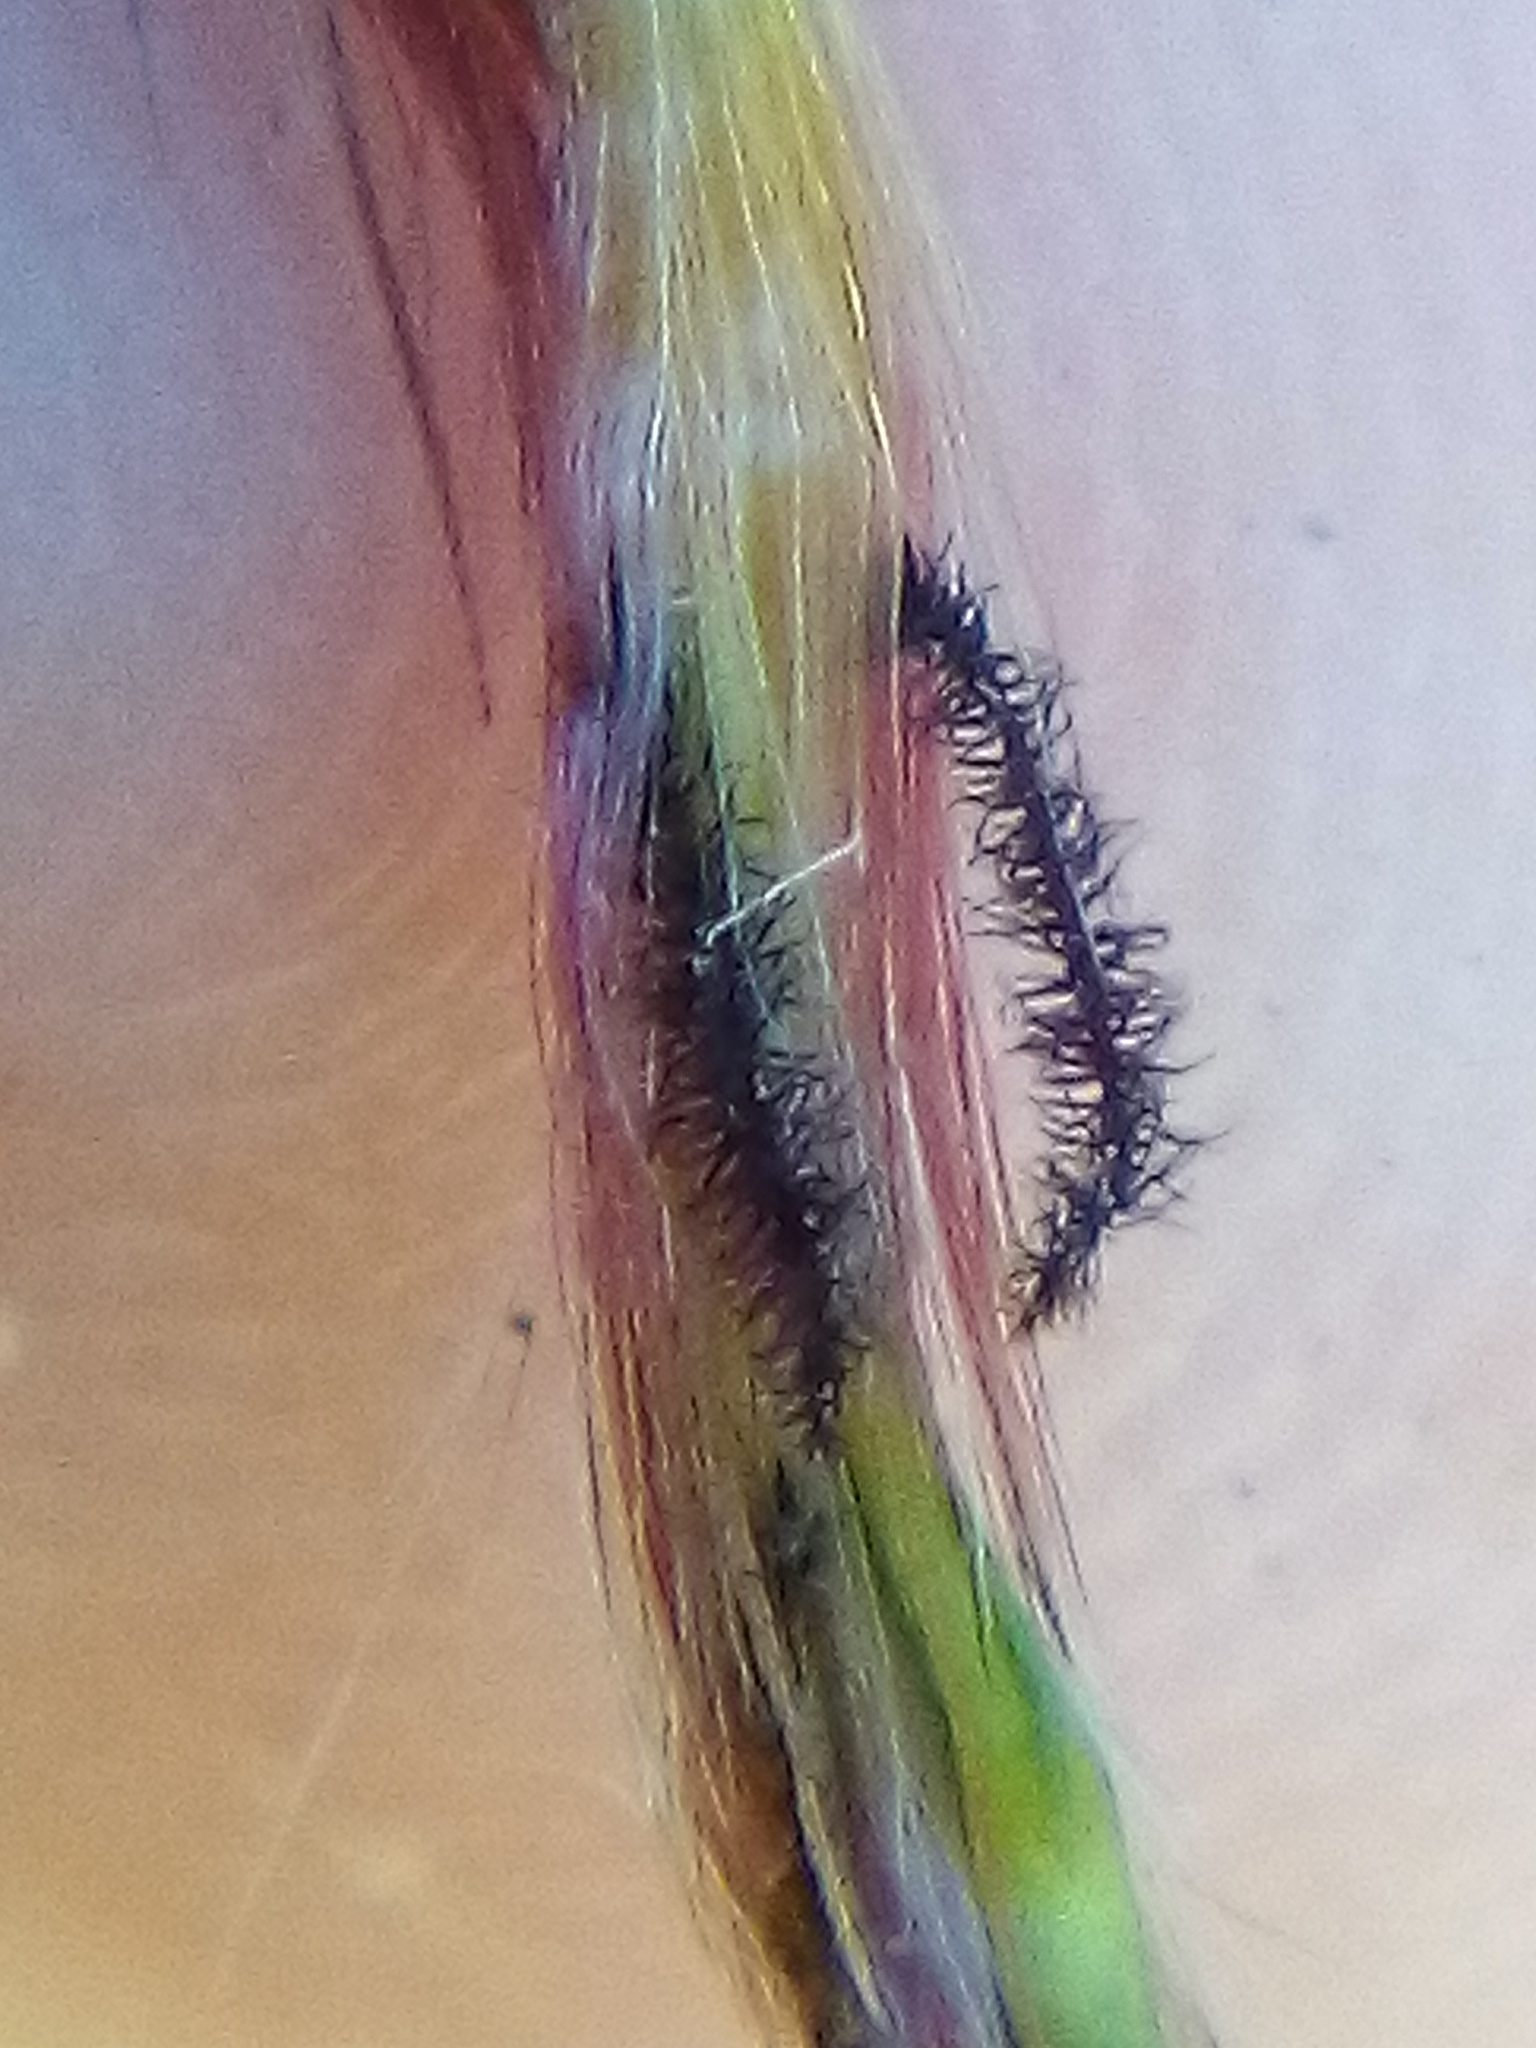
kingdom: Plantae
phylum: Tracheophyta
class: Liliopsida
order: Poales
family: Poaceae
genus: Miscanthus
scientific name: Miscanthus sinensis
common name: Chinese silvergrass
